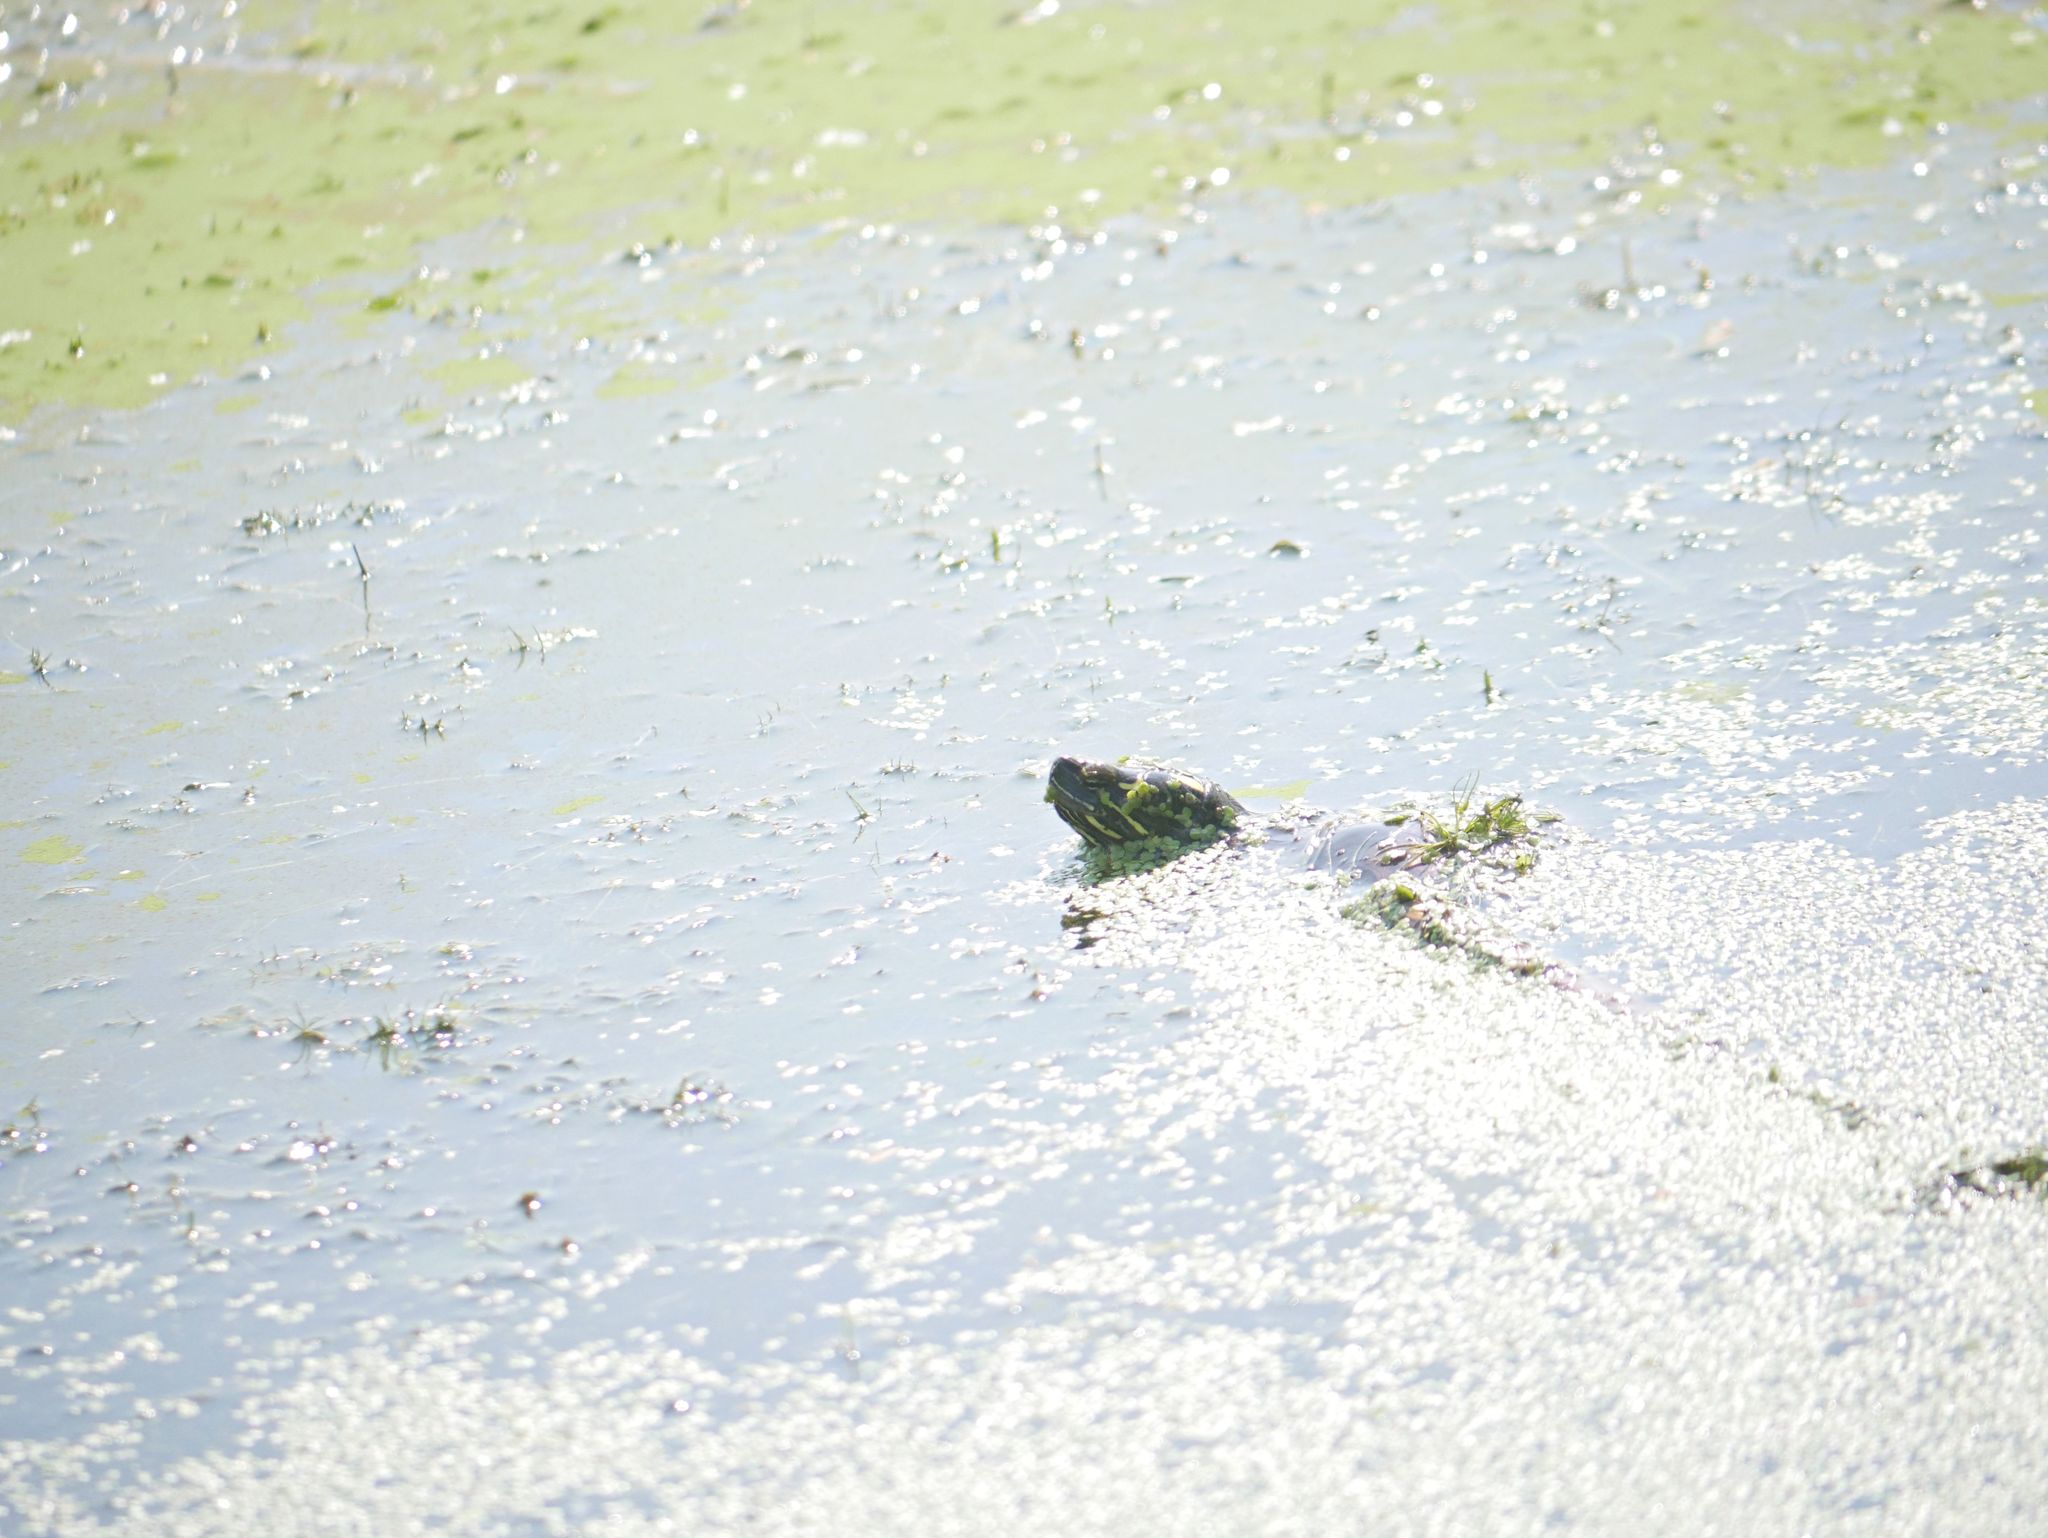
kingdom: Animalia
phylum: Chordata
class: Testudines
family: Emydidae
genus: Chrysemys
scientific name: Chrysemys picta
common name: Painted turtle
